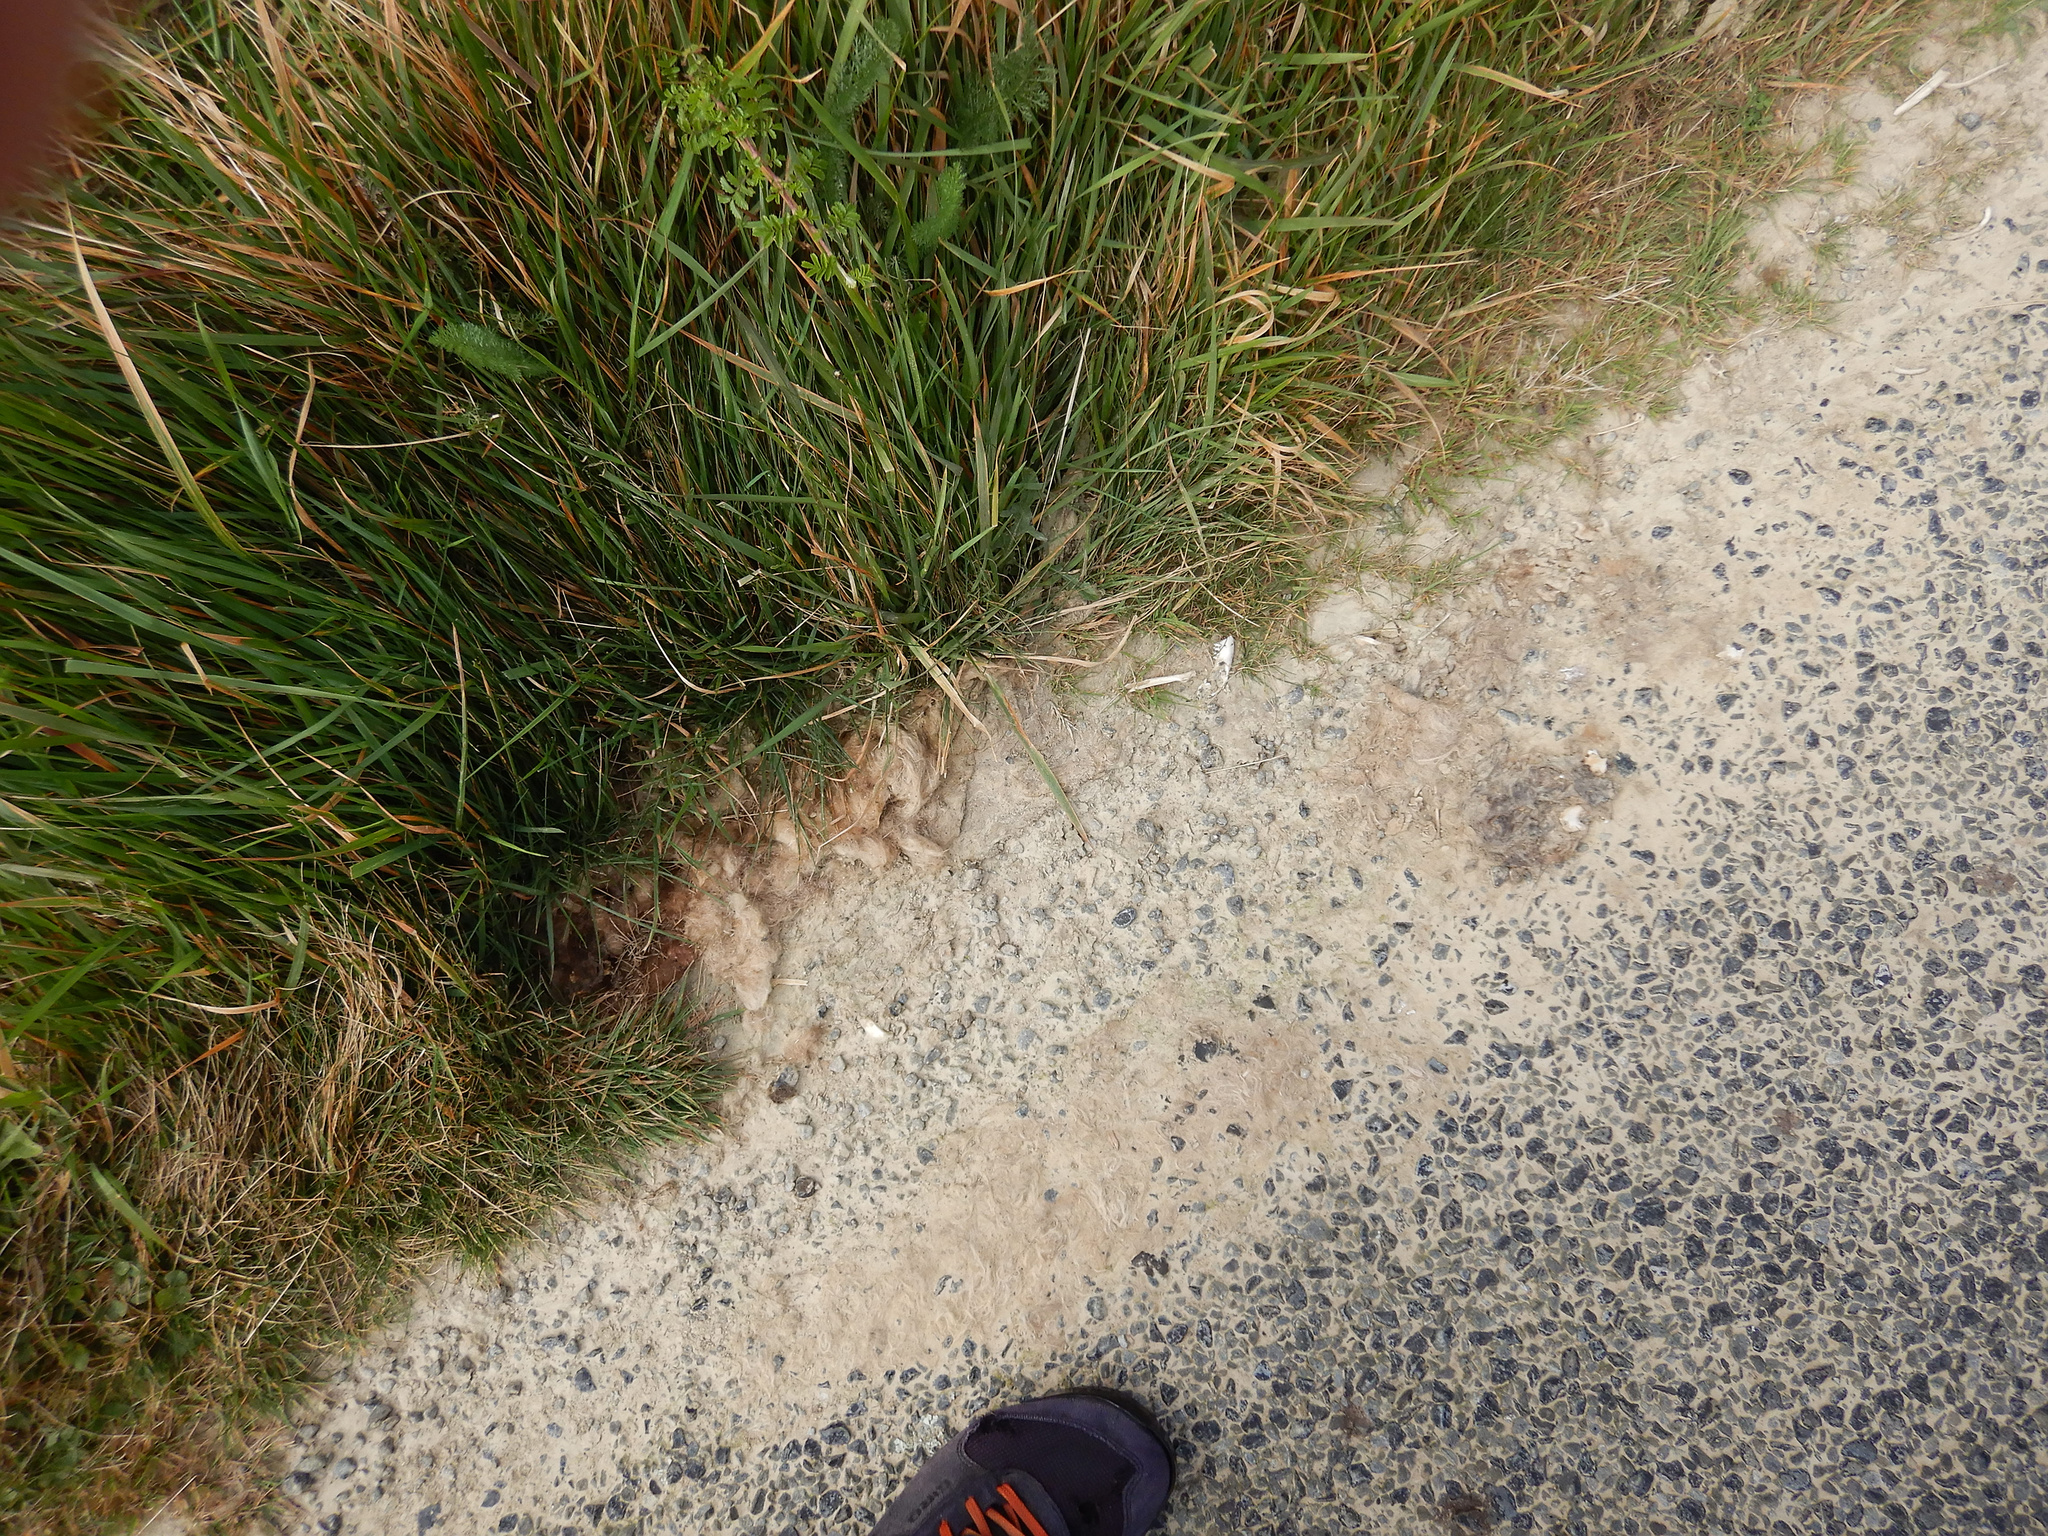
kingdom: Animalia
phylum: Chordata
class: Mammalia
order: Diprotodontia
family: Phalangeridae
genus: Trichosurus
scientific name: Trichosurus vulpecula
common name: Common brushtail
